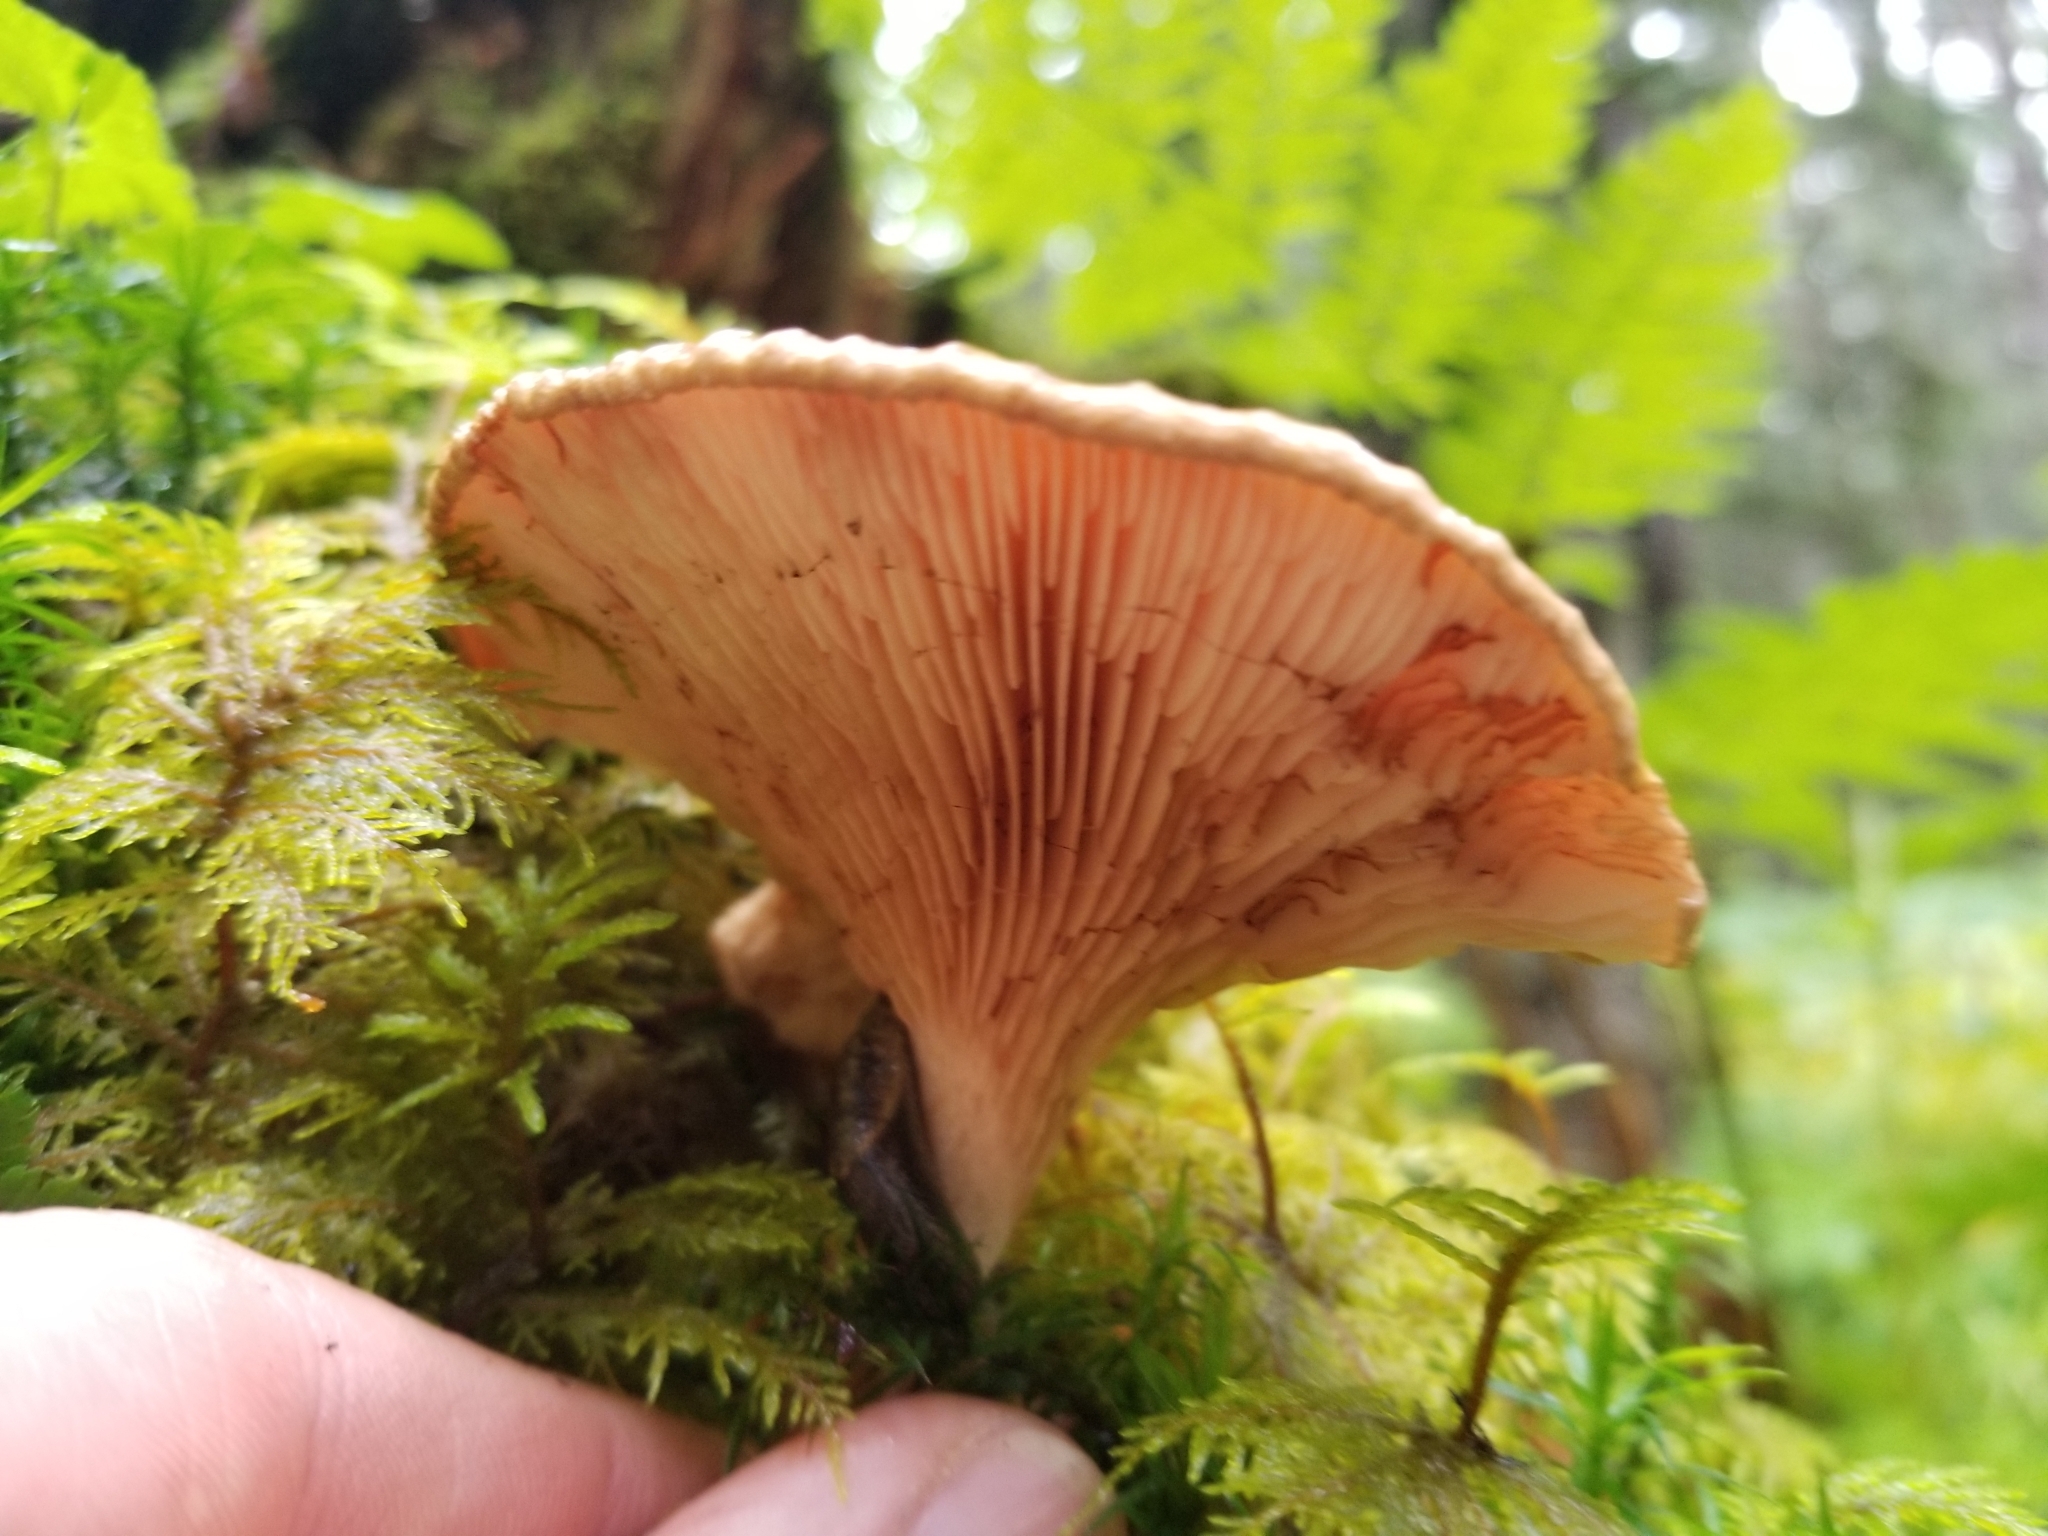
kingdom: Fungi
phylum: Basidiomycota
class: Agaricomycetes
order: Boletales
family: Paxillaceae
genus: Paxillus
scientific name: Paxillus involutus
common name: Brown roll rim
